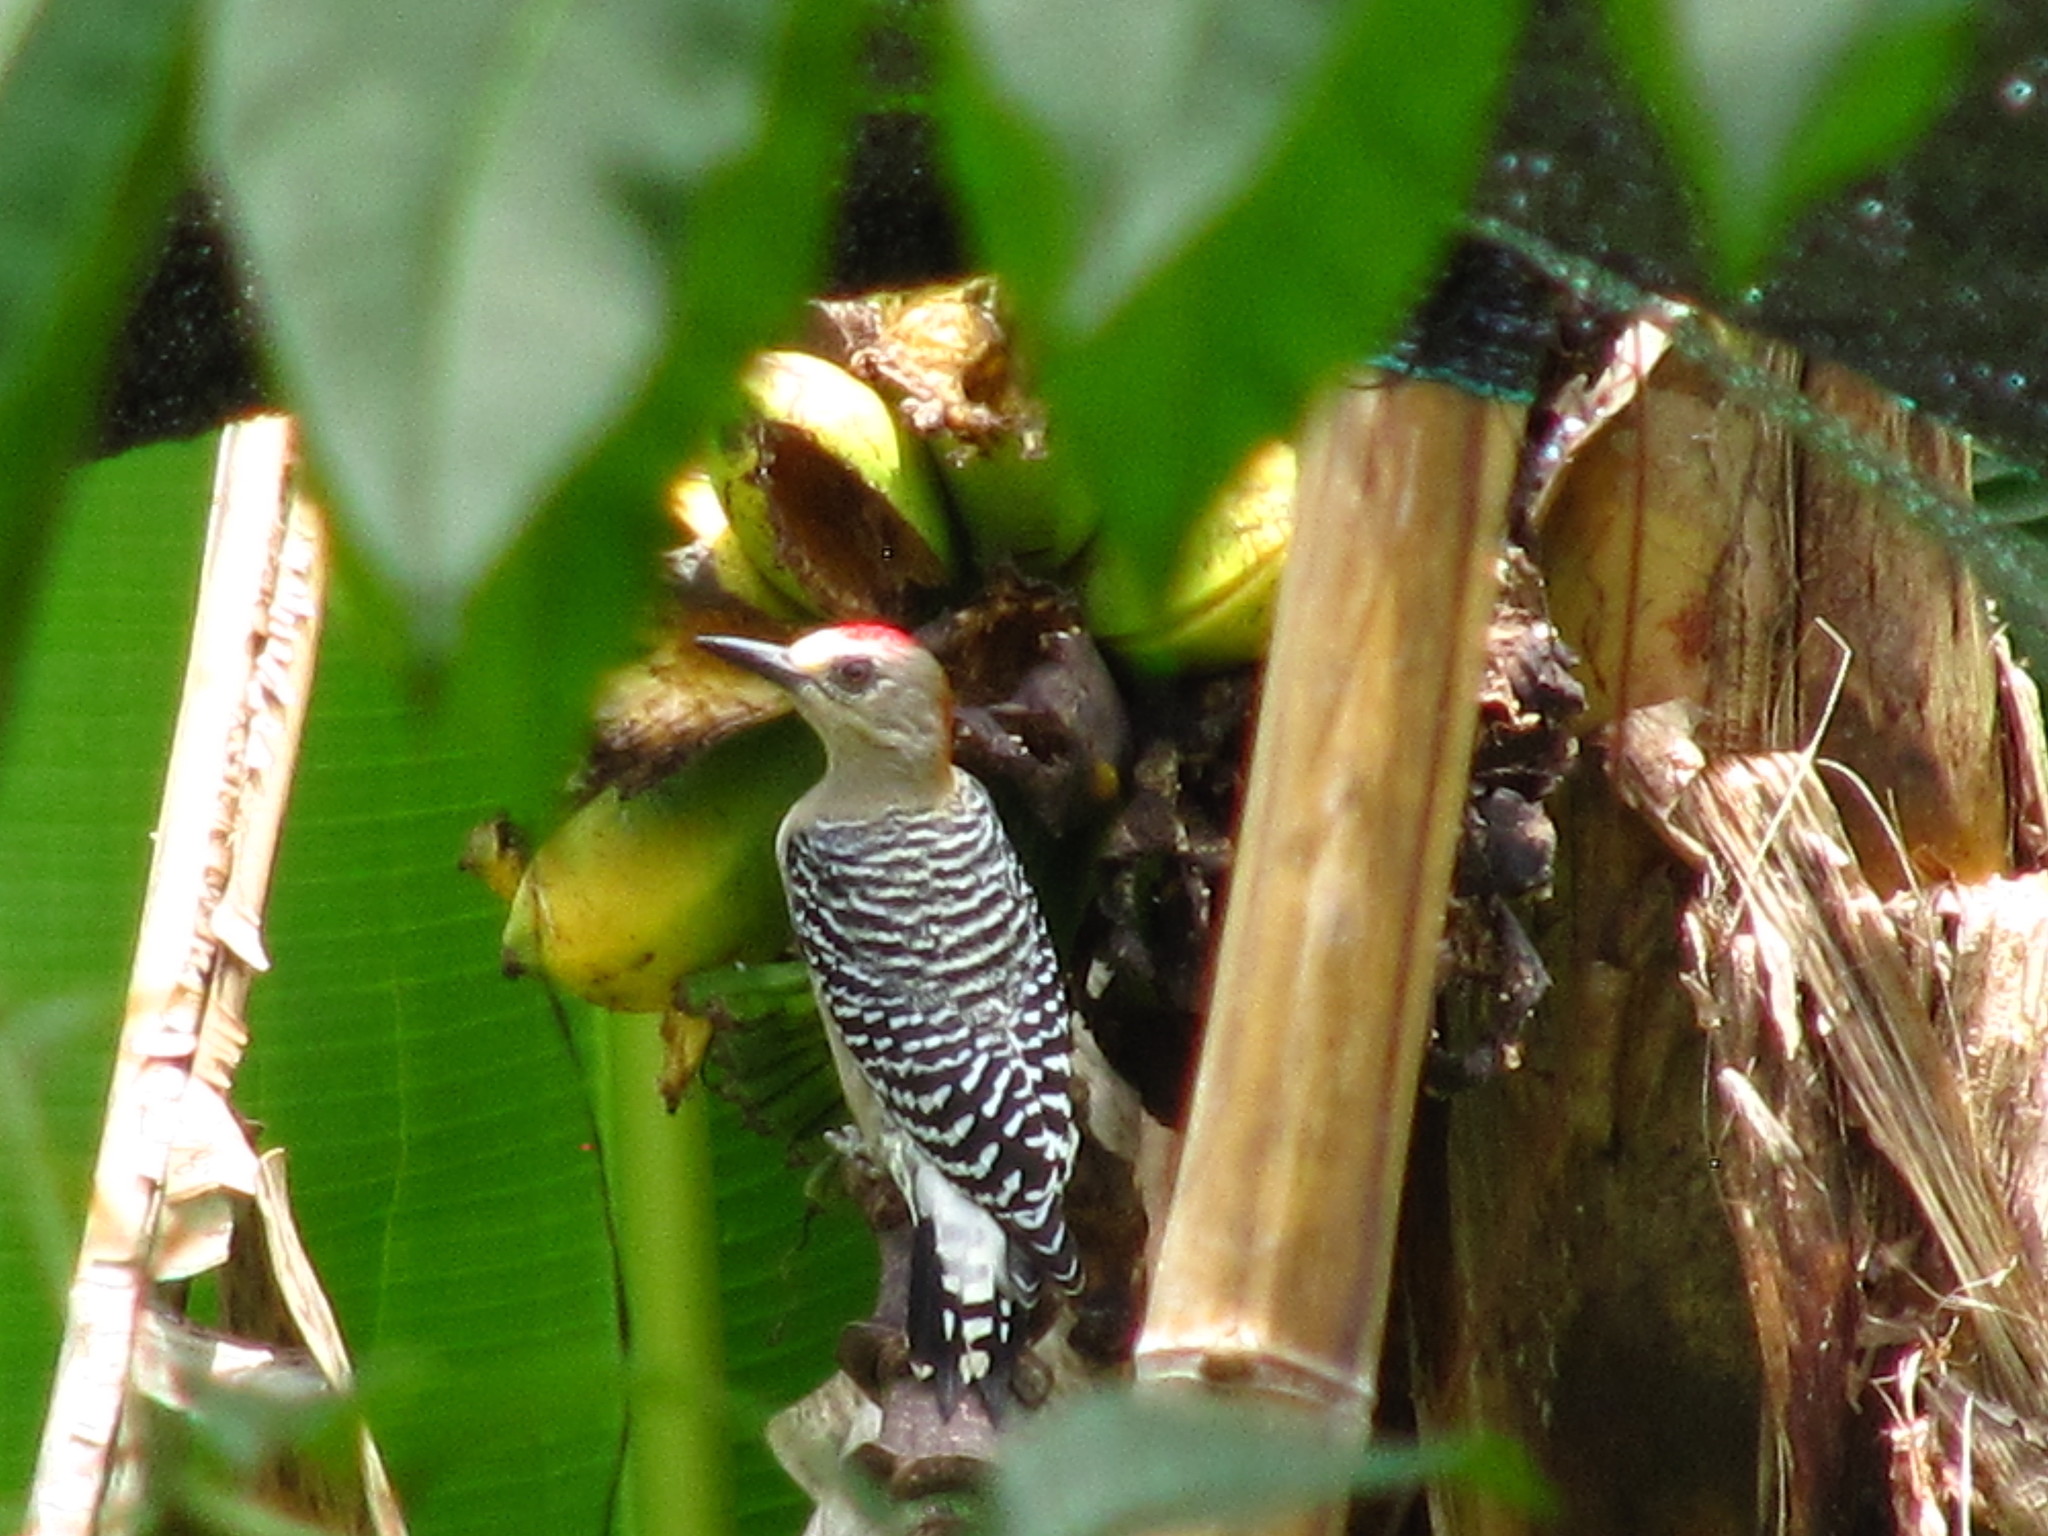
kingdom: Animalia
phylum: Chordata
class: Aves
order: Piciformes
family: Picidae
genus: Melanerpes
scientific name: Melanerpes rubricapillus
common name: Red-crowned woodpecker
